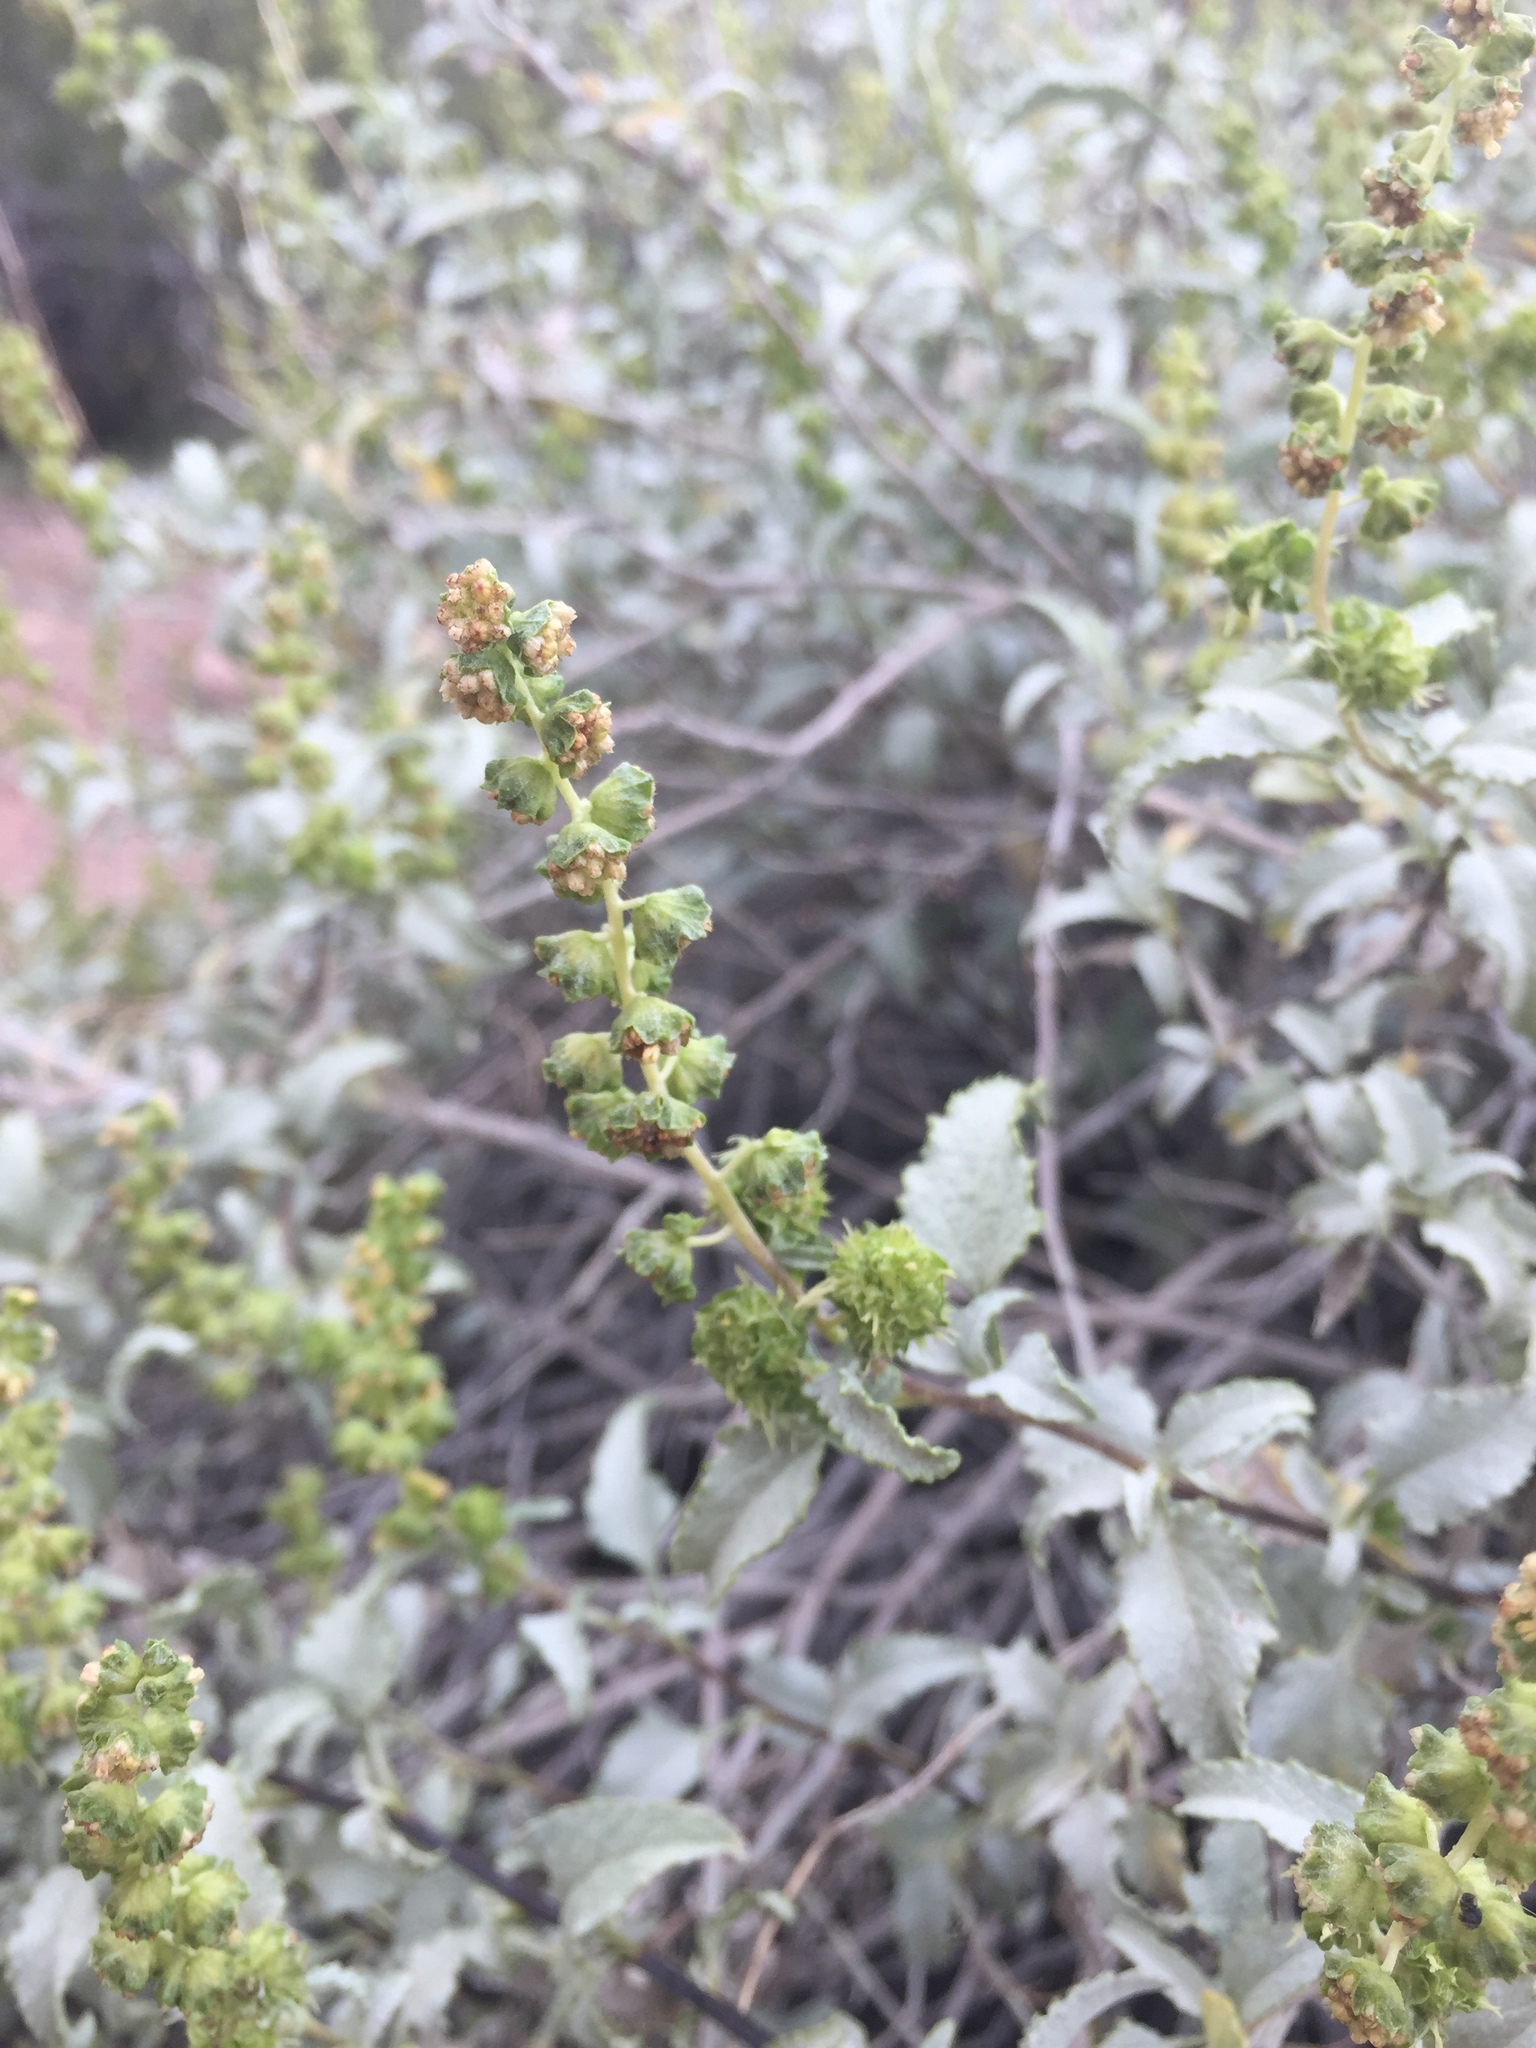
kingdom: Plantae
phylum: Tracheophyta
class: Magnoliopsida
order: Asterales
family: Asteraceae
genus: Ambrosia
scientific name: Ambrosia deltoidea
